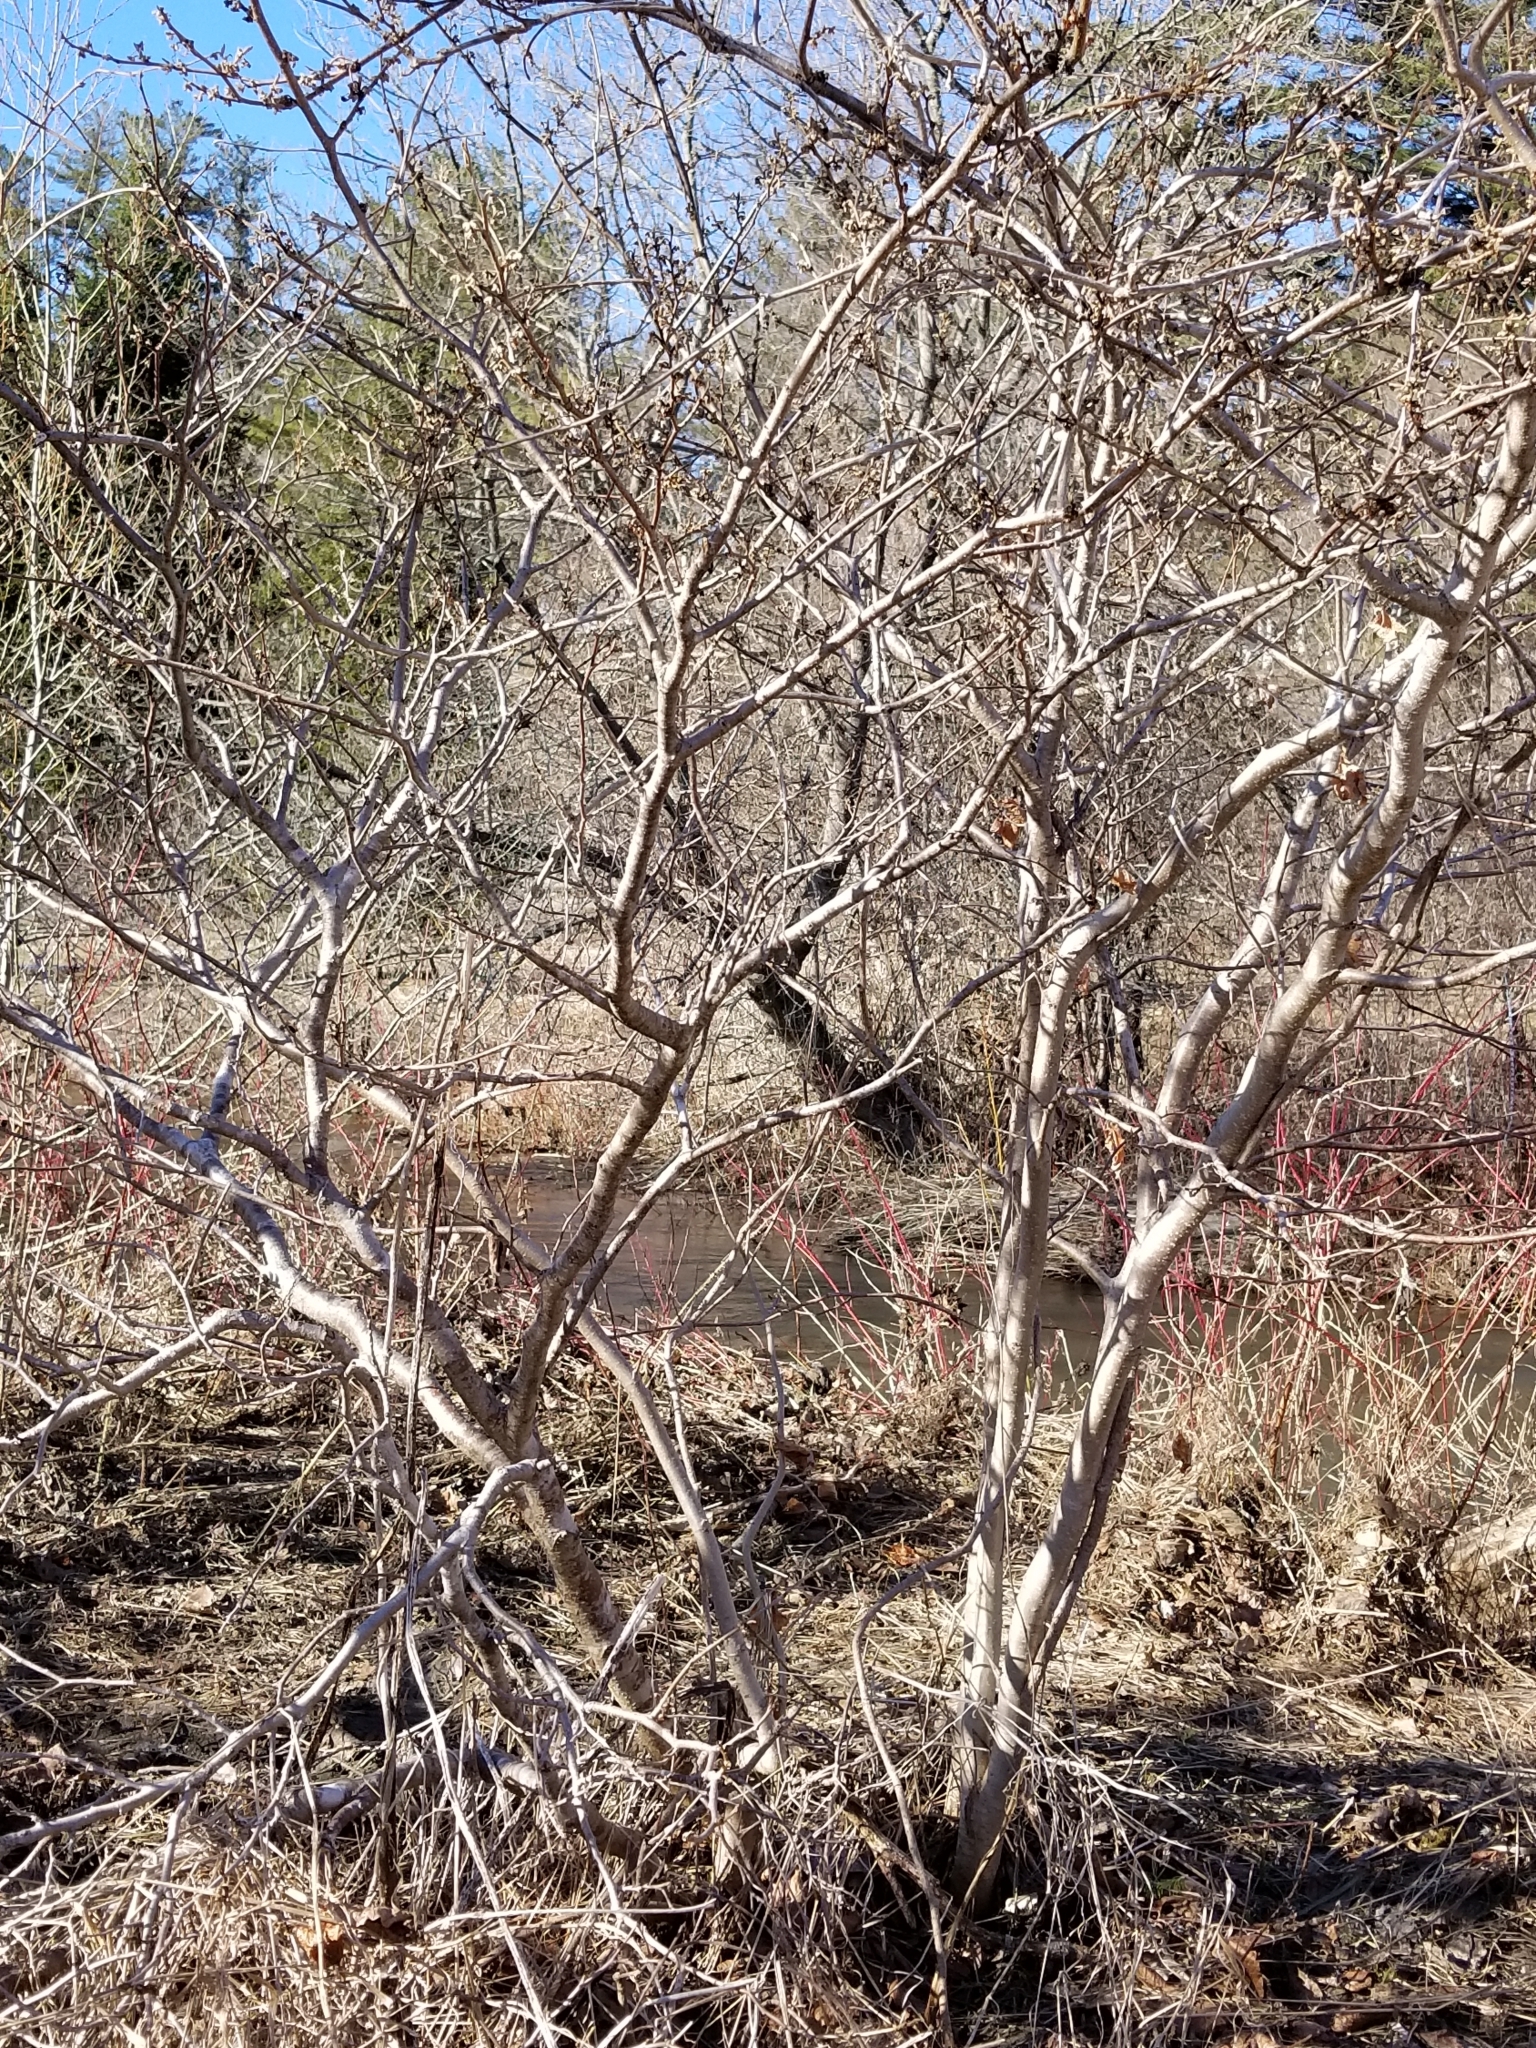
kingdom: Plantae
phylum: Tracheophyta
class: Magnoliopsida
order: Saxifragales
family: Hamamelidaceae
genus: Hamamelis
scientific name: Hamamelis virginiana
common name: Witch-hazel
